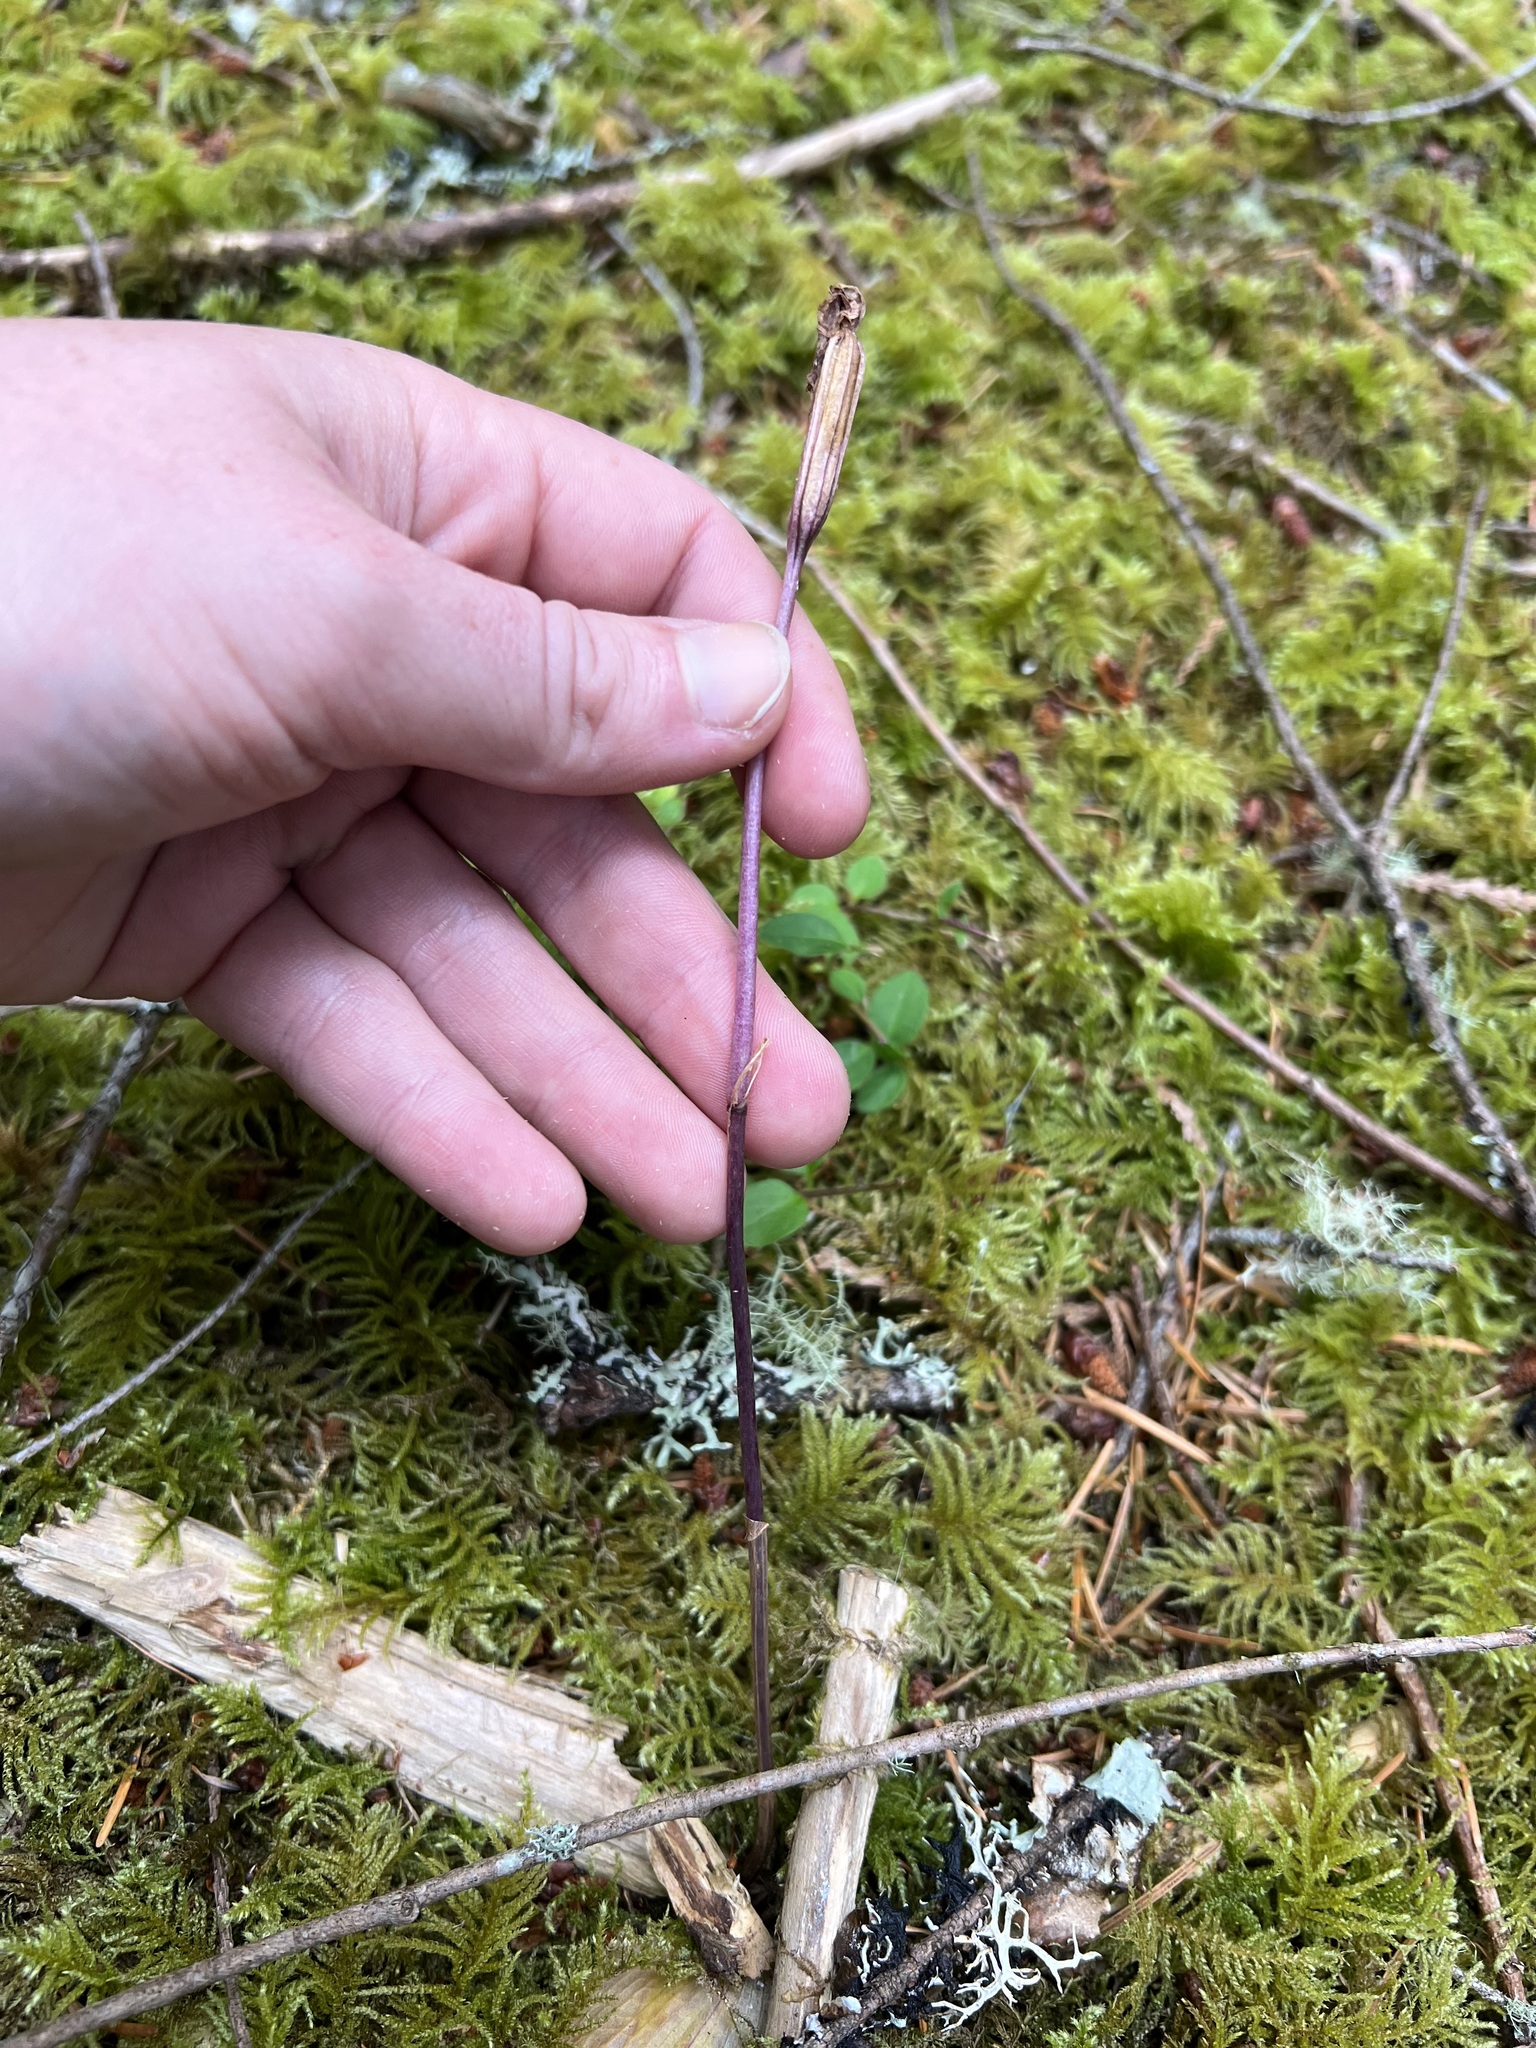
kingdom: Plantae
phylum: Tracheophyta
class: Liliopsida
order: Asparagales
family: Orchidaceae
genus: Calypso
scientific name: Calypso bulbosa
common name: Calypso
